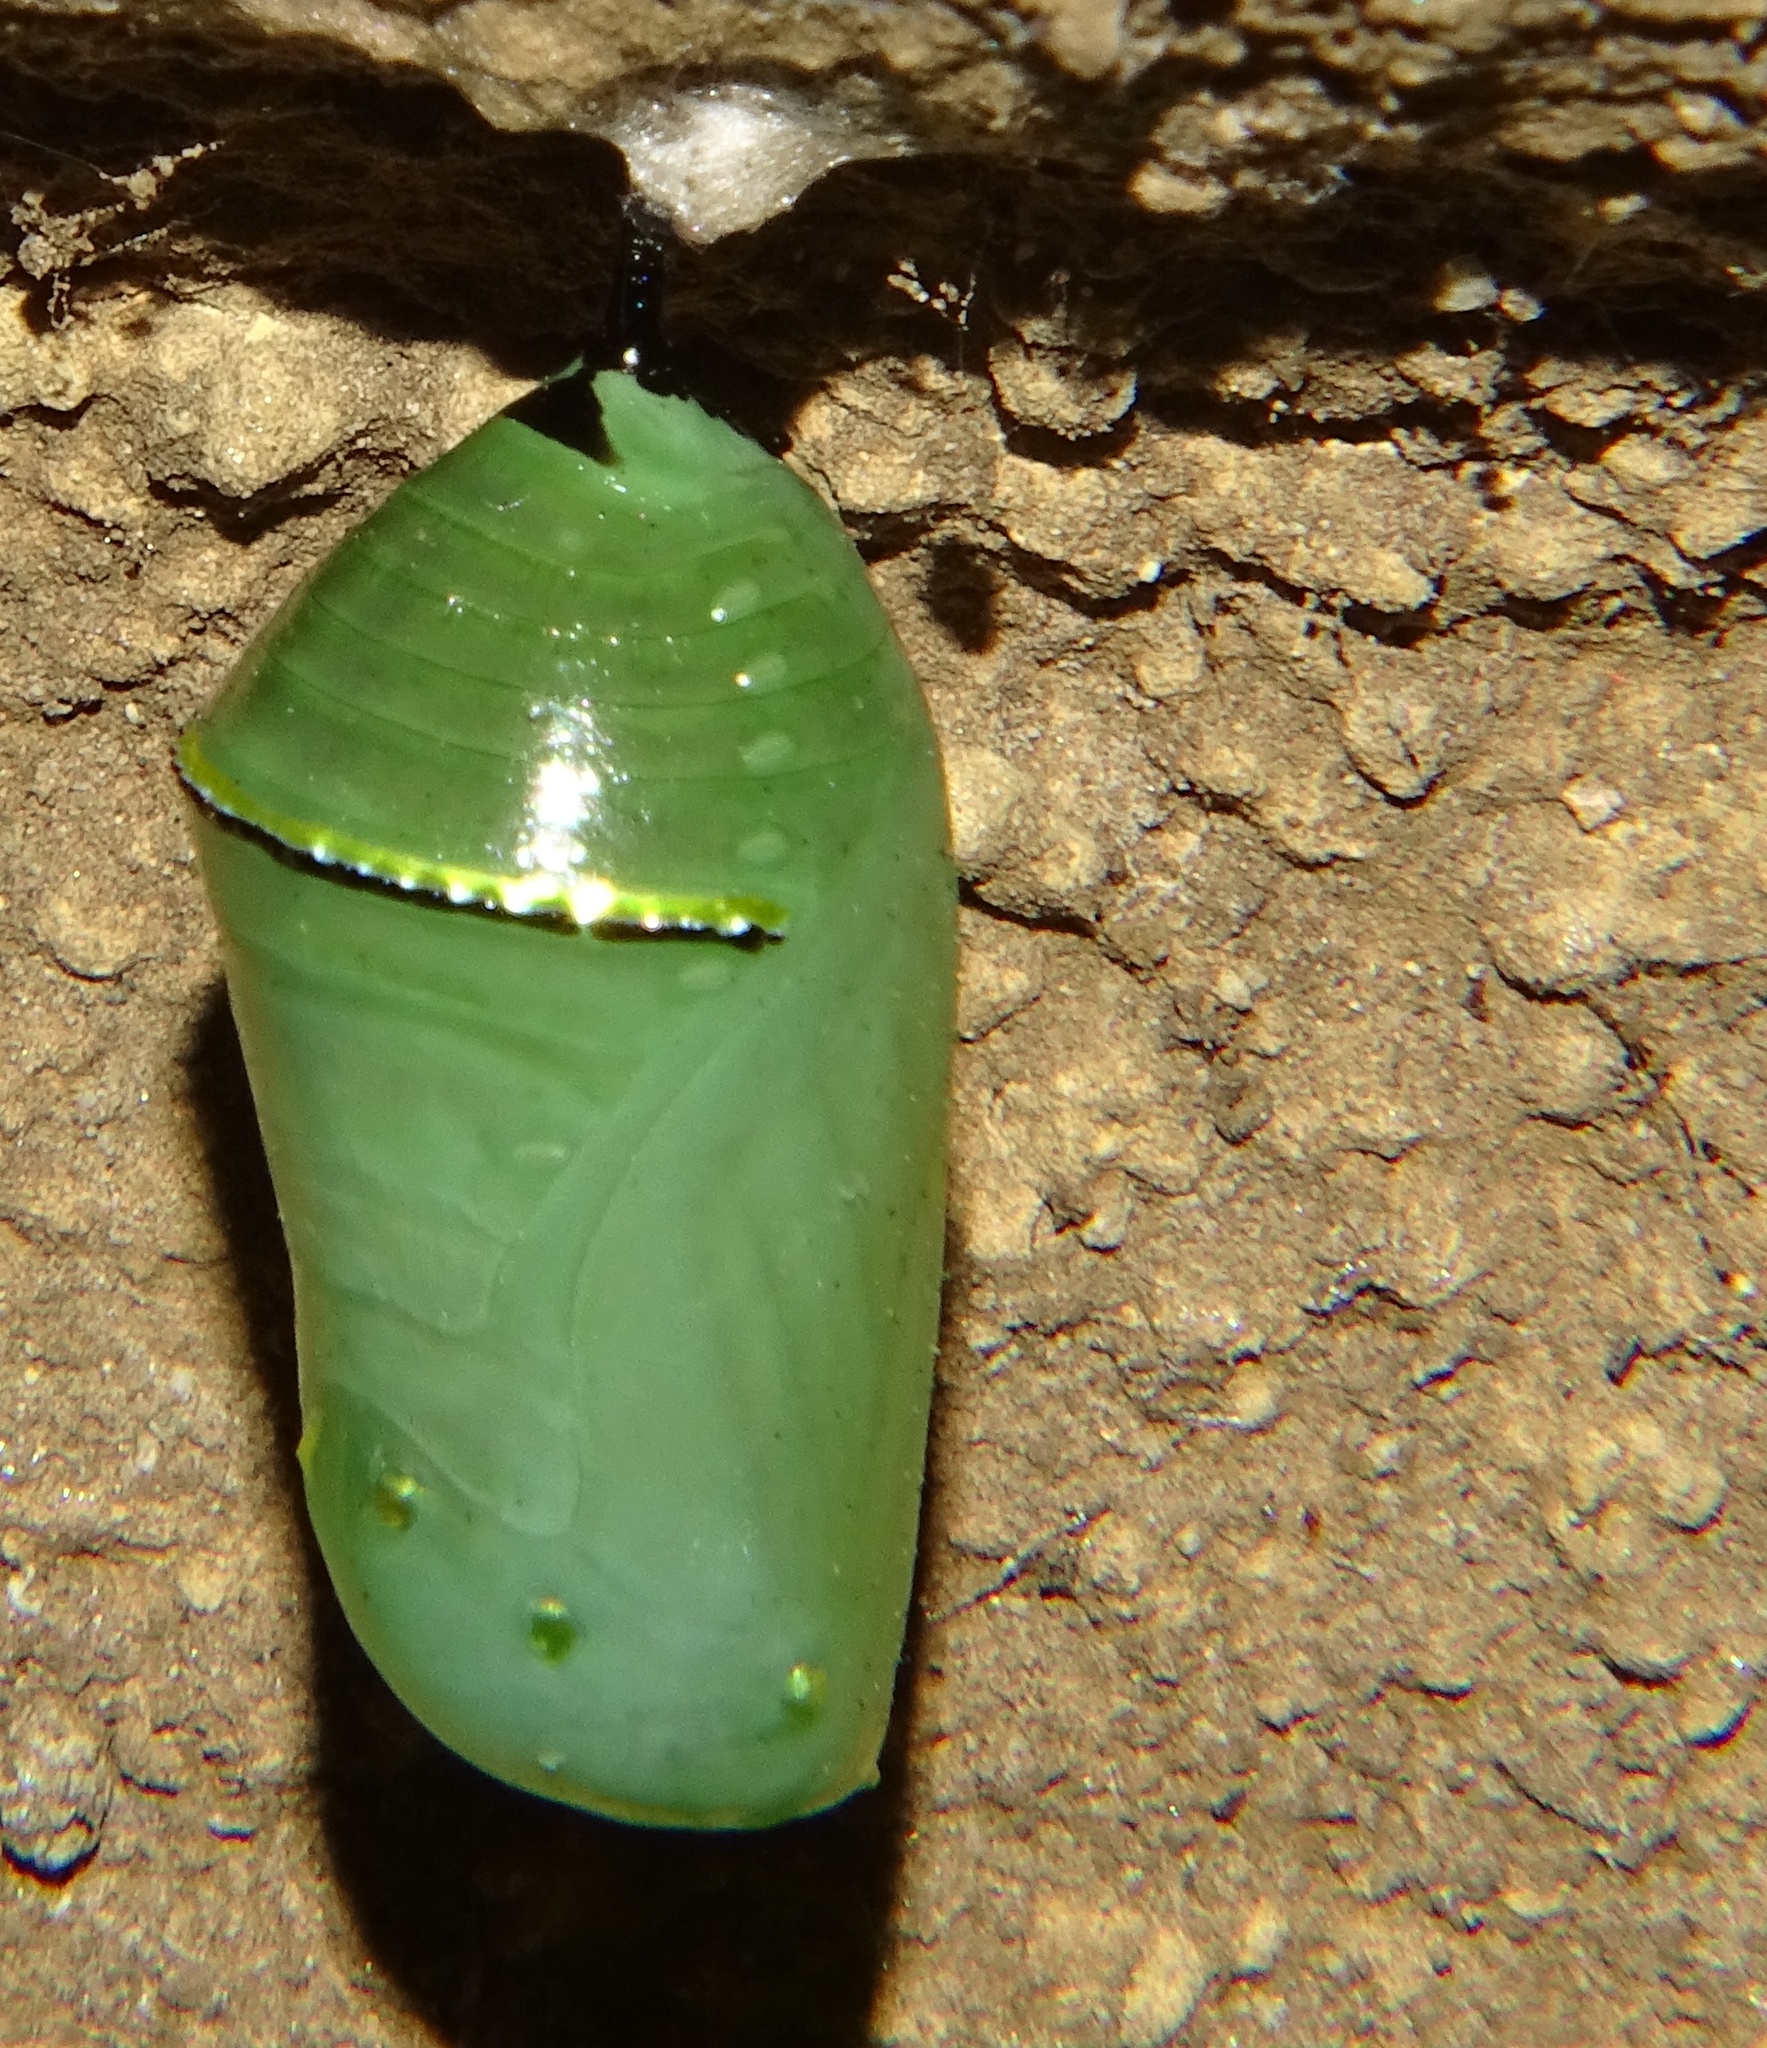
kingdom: Animalia
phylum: Arthropoda
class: Insecta
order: Lepidoptera
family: Nymphalidae
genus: Danaus
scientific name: Danaus plexippus
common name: Monarch
